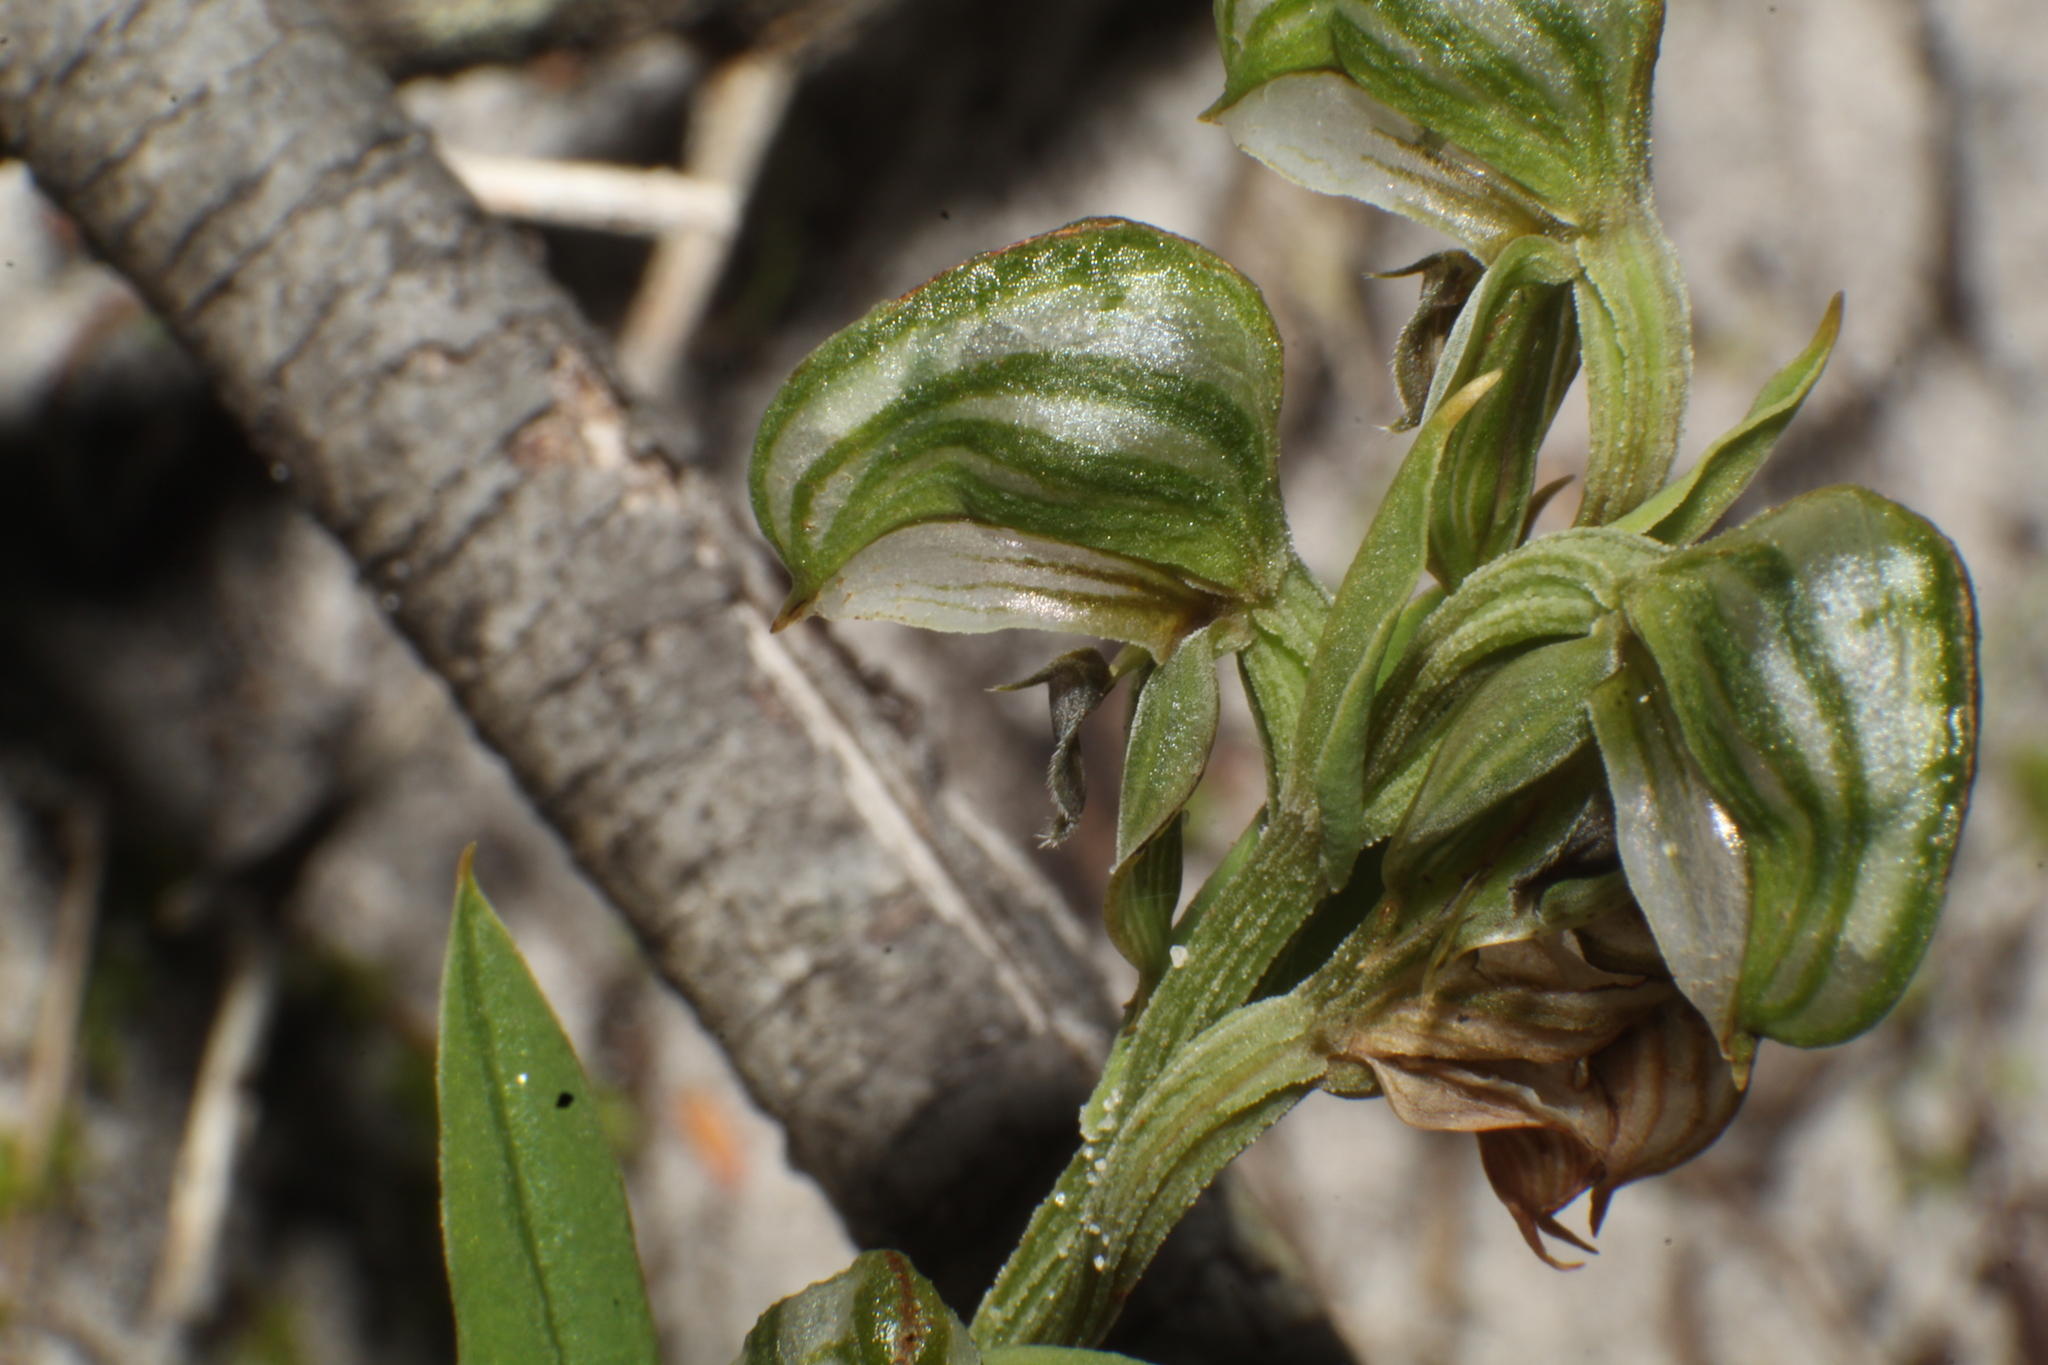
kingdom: Plantae
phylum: Tracheophyta
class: Liliopsida
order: Asparagales
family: Orchidaceae
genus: Pterostylis
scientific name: Pterostylis orbiculata
